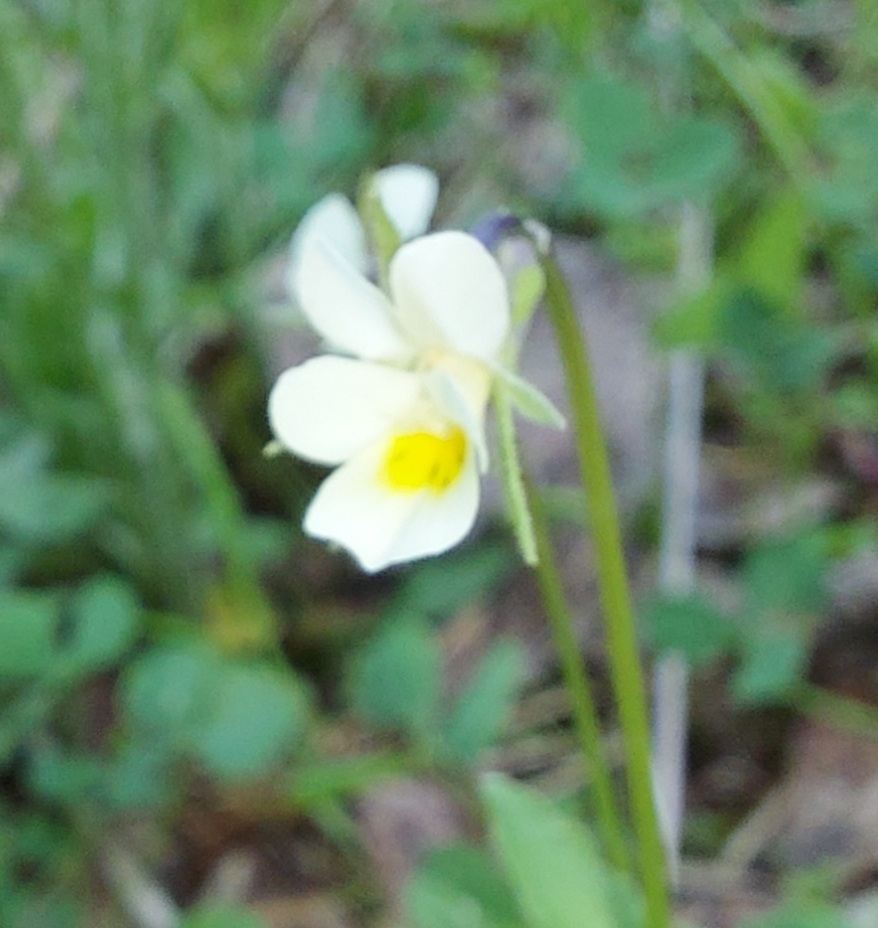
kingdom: Plantae
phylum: Tracheophyta
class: Magnoliopsida
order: Malpighiales
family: Violaceae
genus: Viola
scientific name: Viola arvensis
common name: Field pansy
